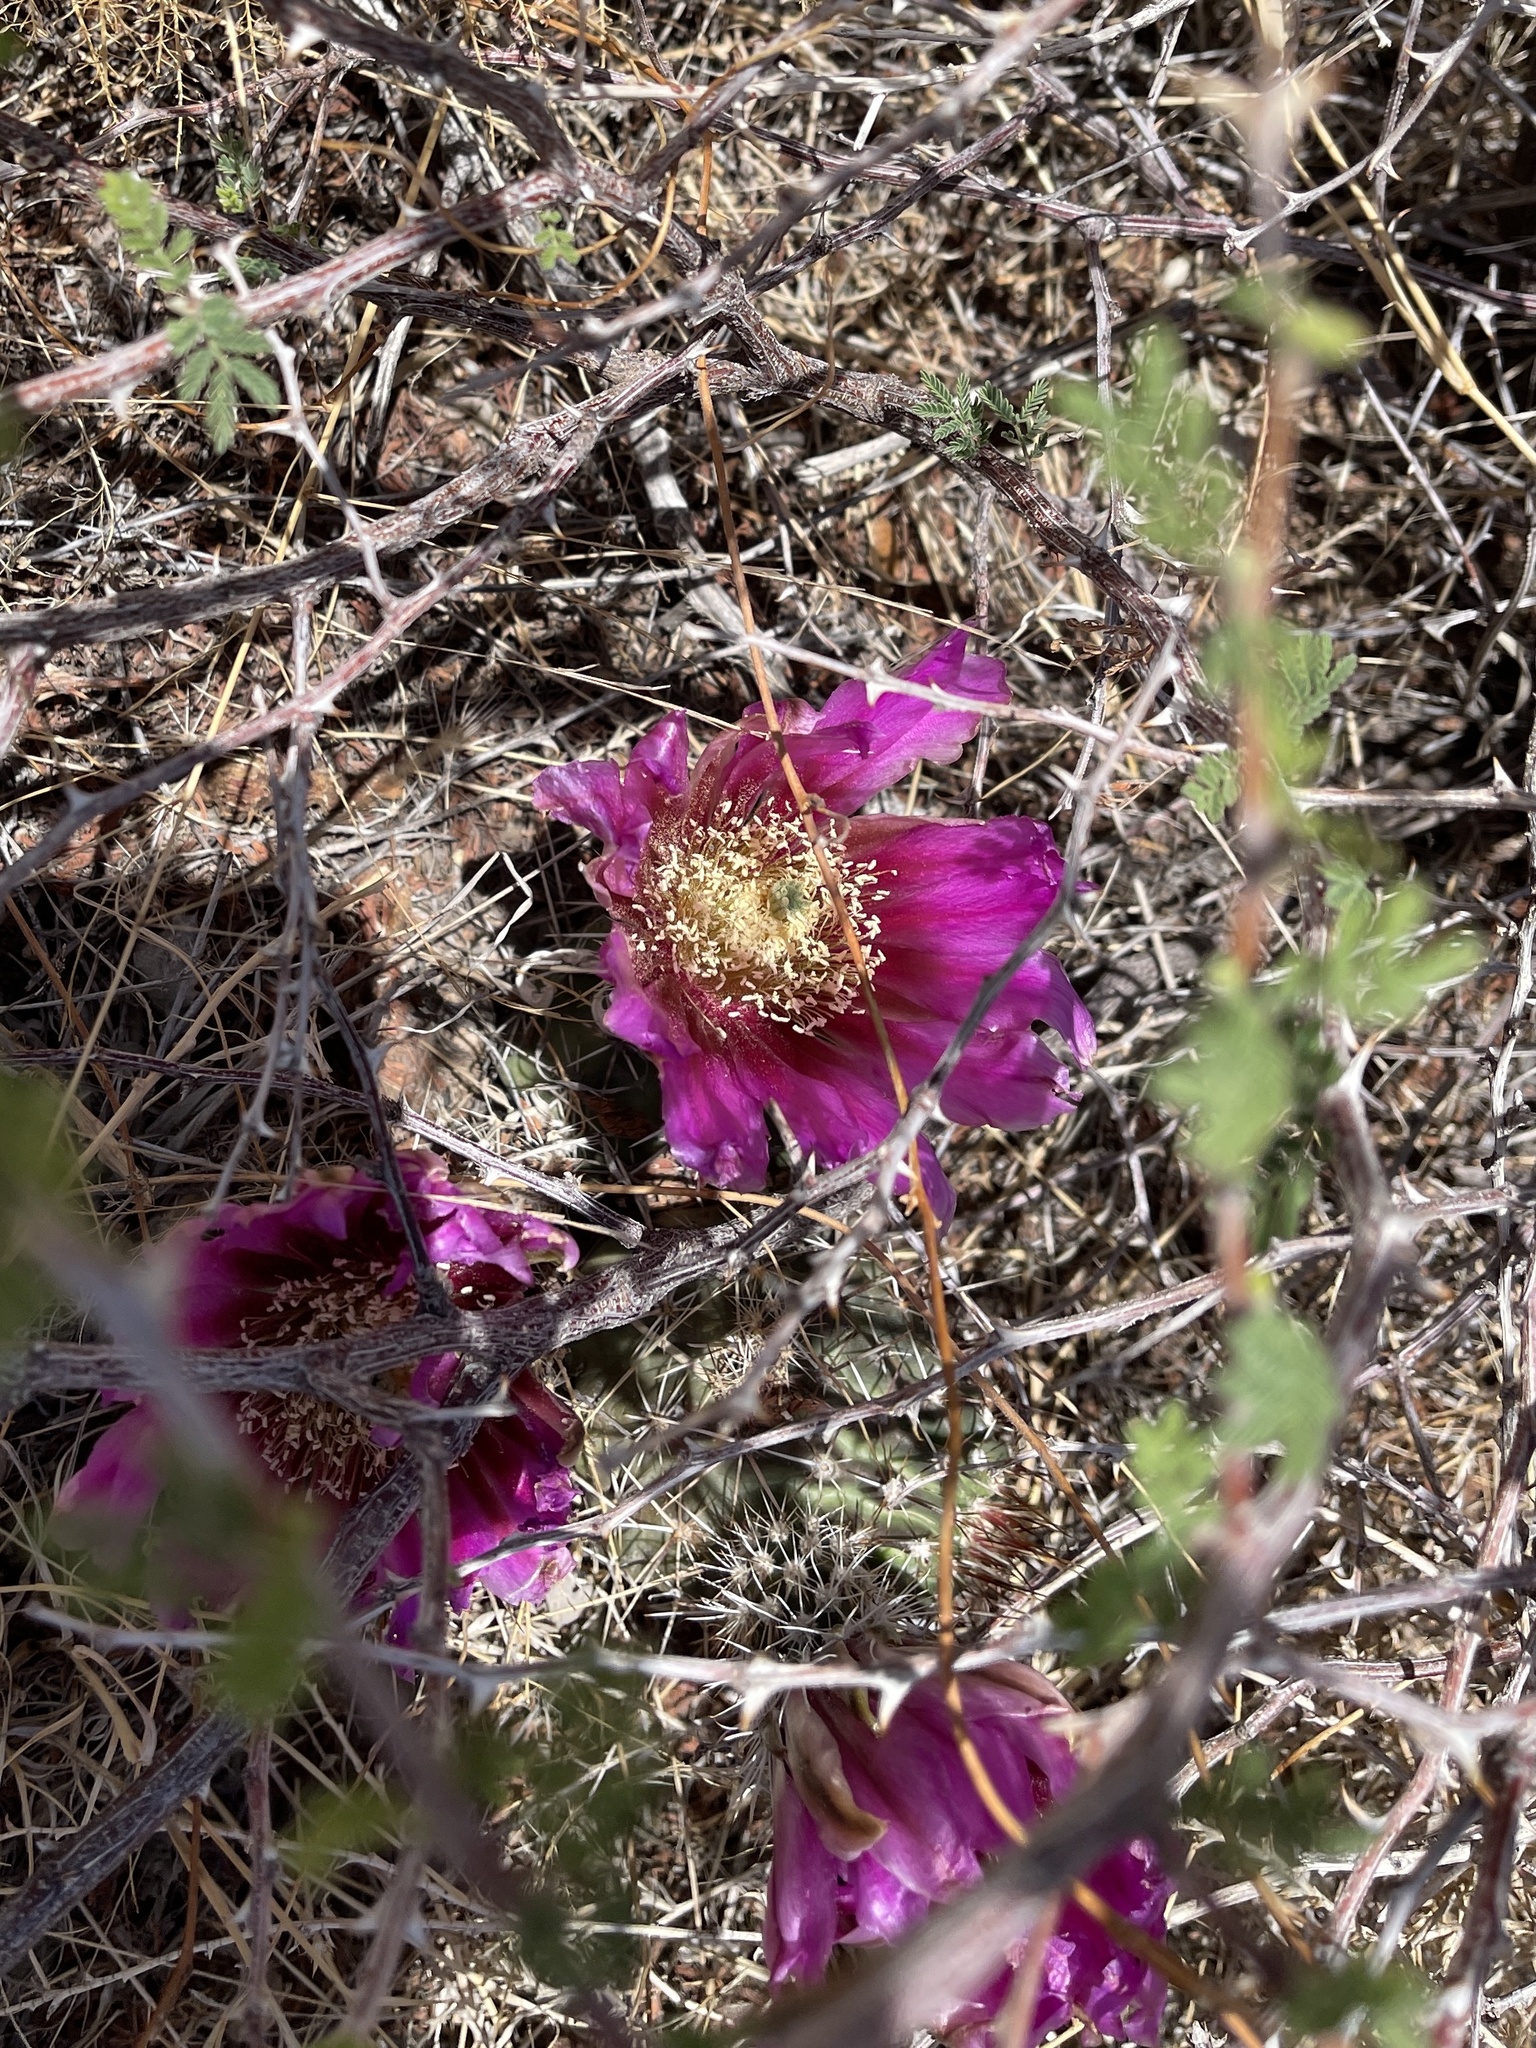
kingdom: Plantae
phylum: Tracheophyta
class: Magnoliopsida
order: Caryophyllales
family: Cactaceae
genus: Echinocereus
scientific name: Echinocereus fendleri
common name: Fendler's hedgehog cactus
